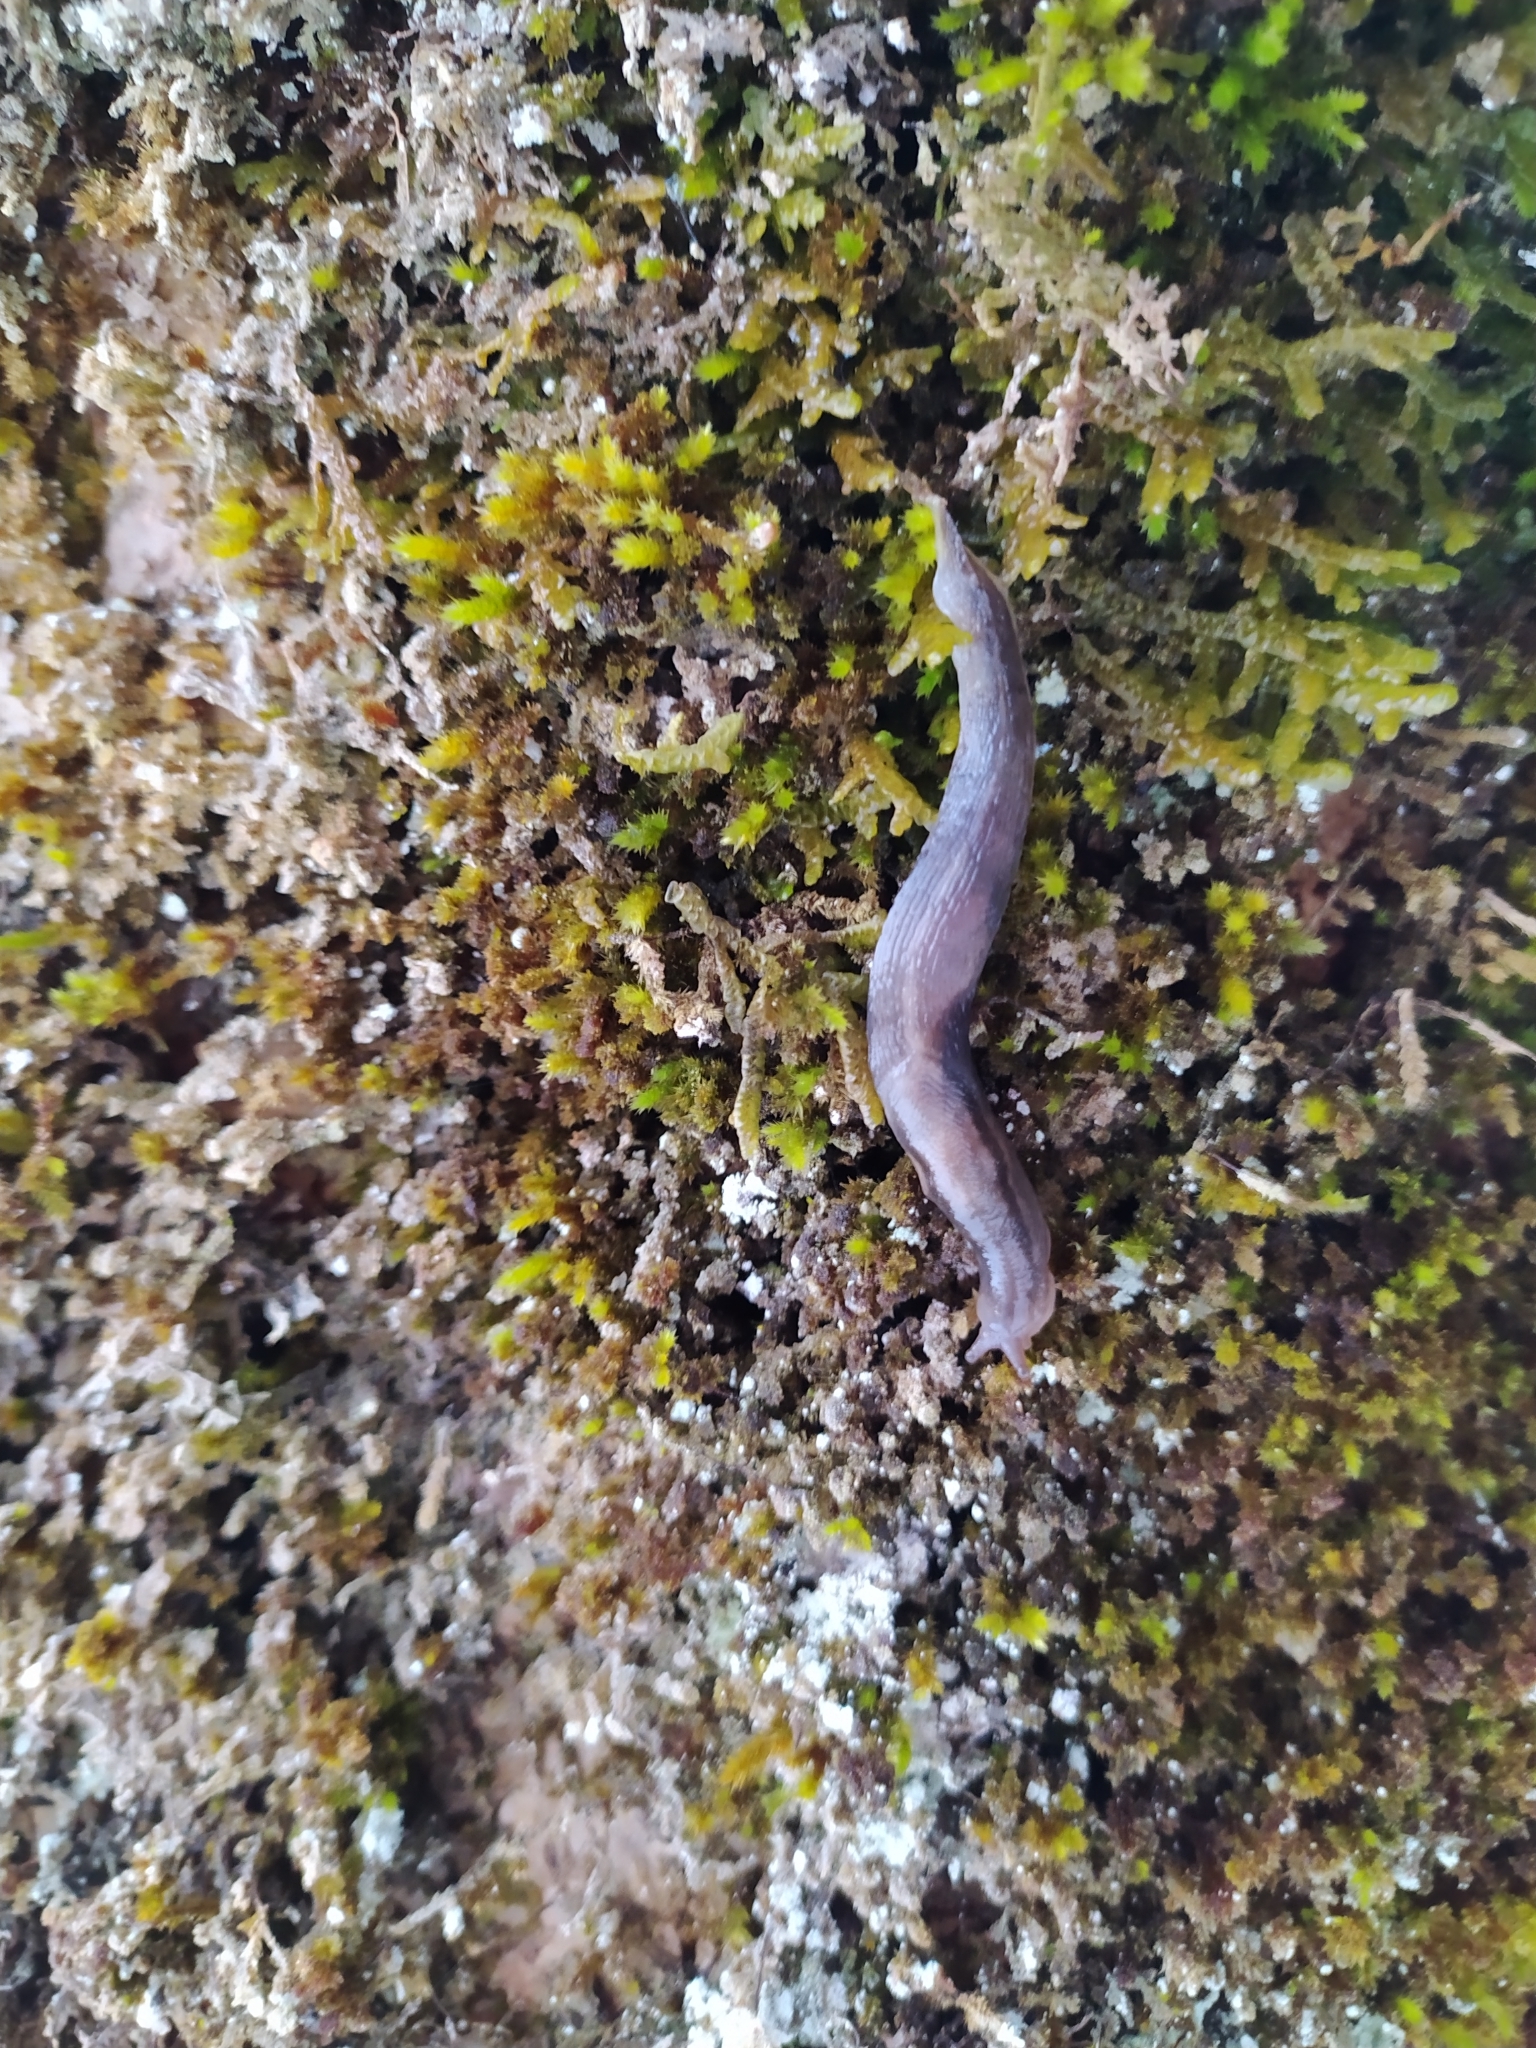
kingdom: Animalia
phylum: Mollusca
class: Gastropoda
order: Stylommatophora
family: Limacidae
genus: Lehmannia
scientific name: Lehmannia marginata
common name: Tree slug
